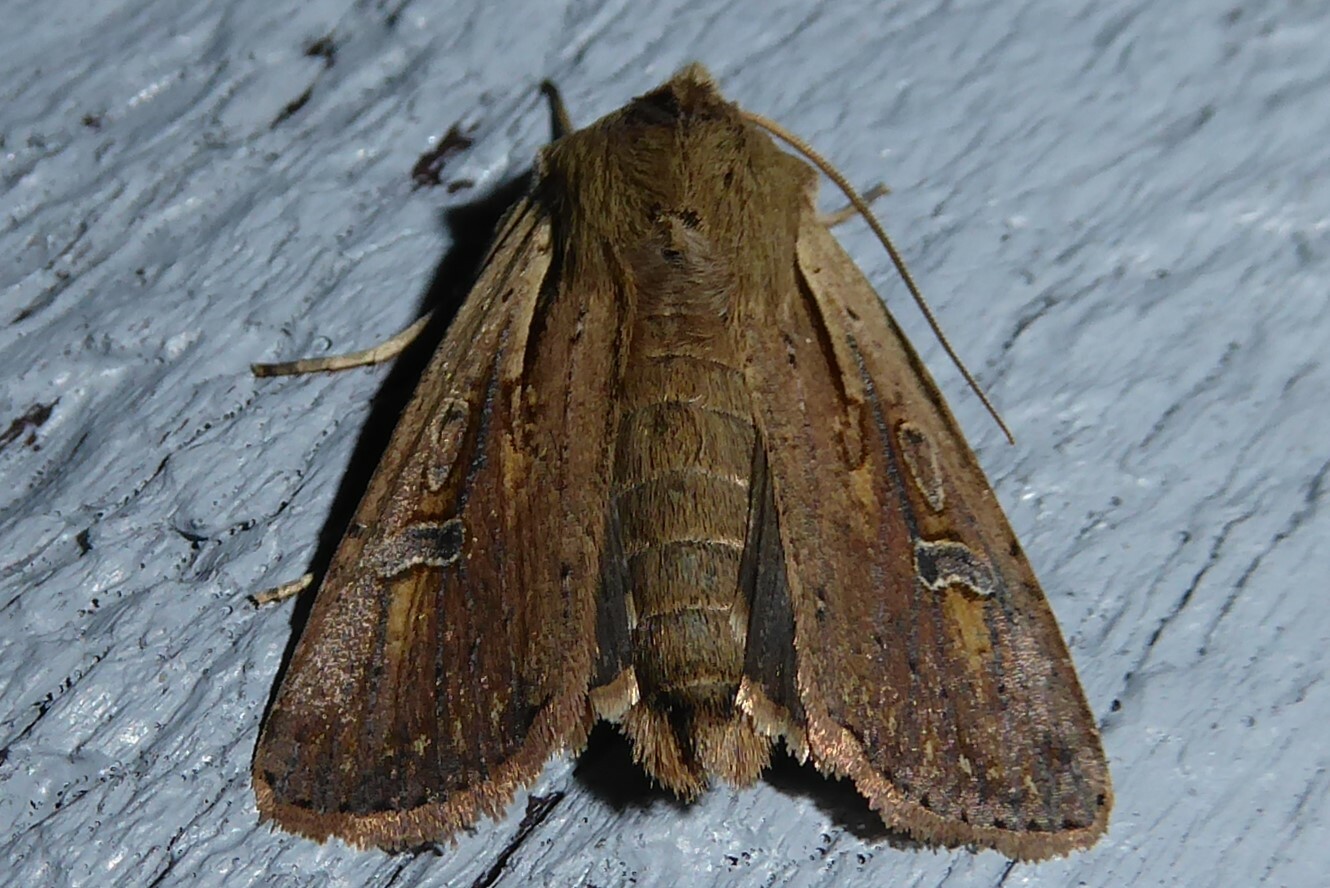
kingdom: Animalia
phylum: Arthropoda
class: Insecta
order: Lepidoptera
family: Noctuidae
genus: Ichneutica
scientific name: Ichneutica atristriga
